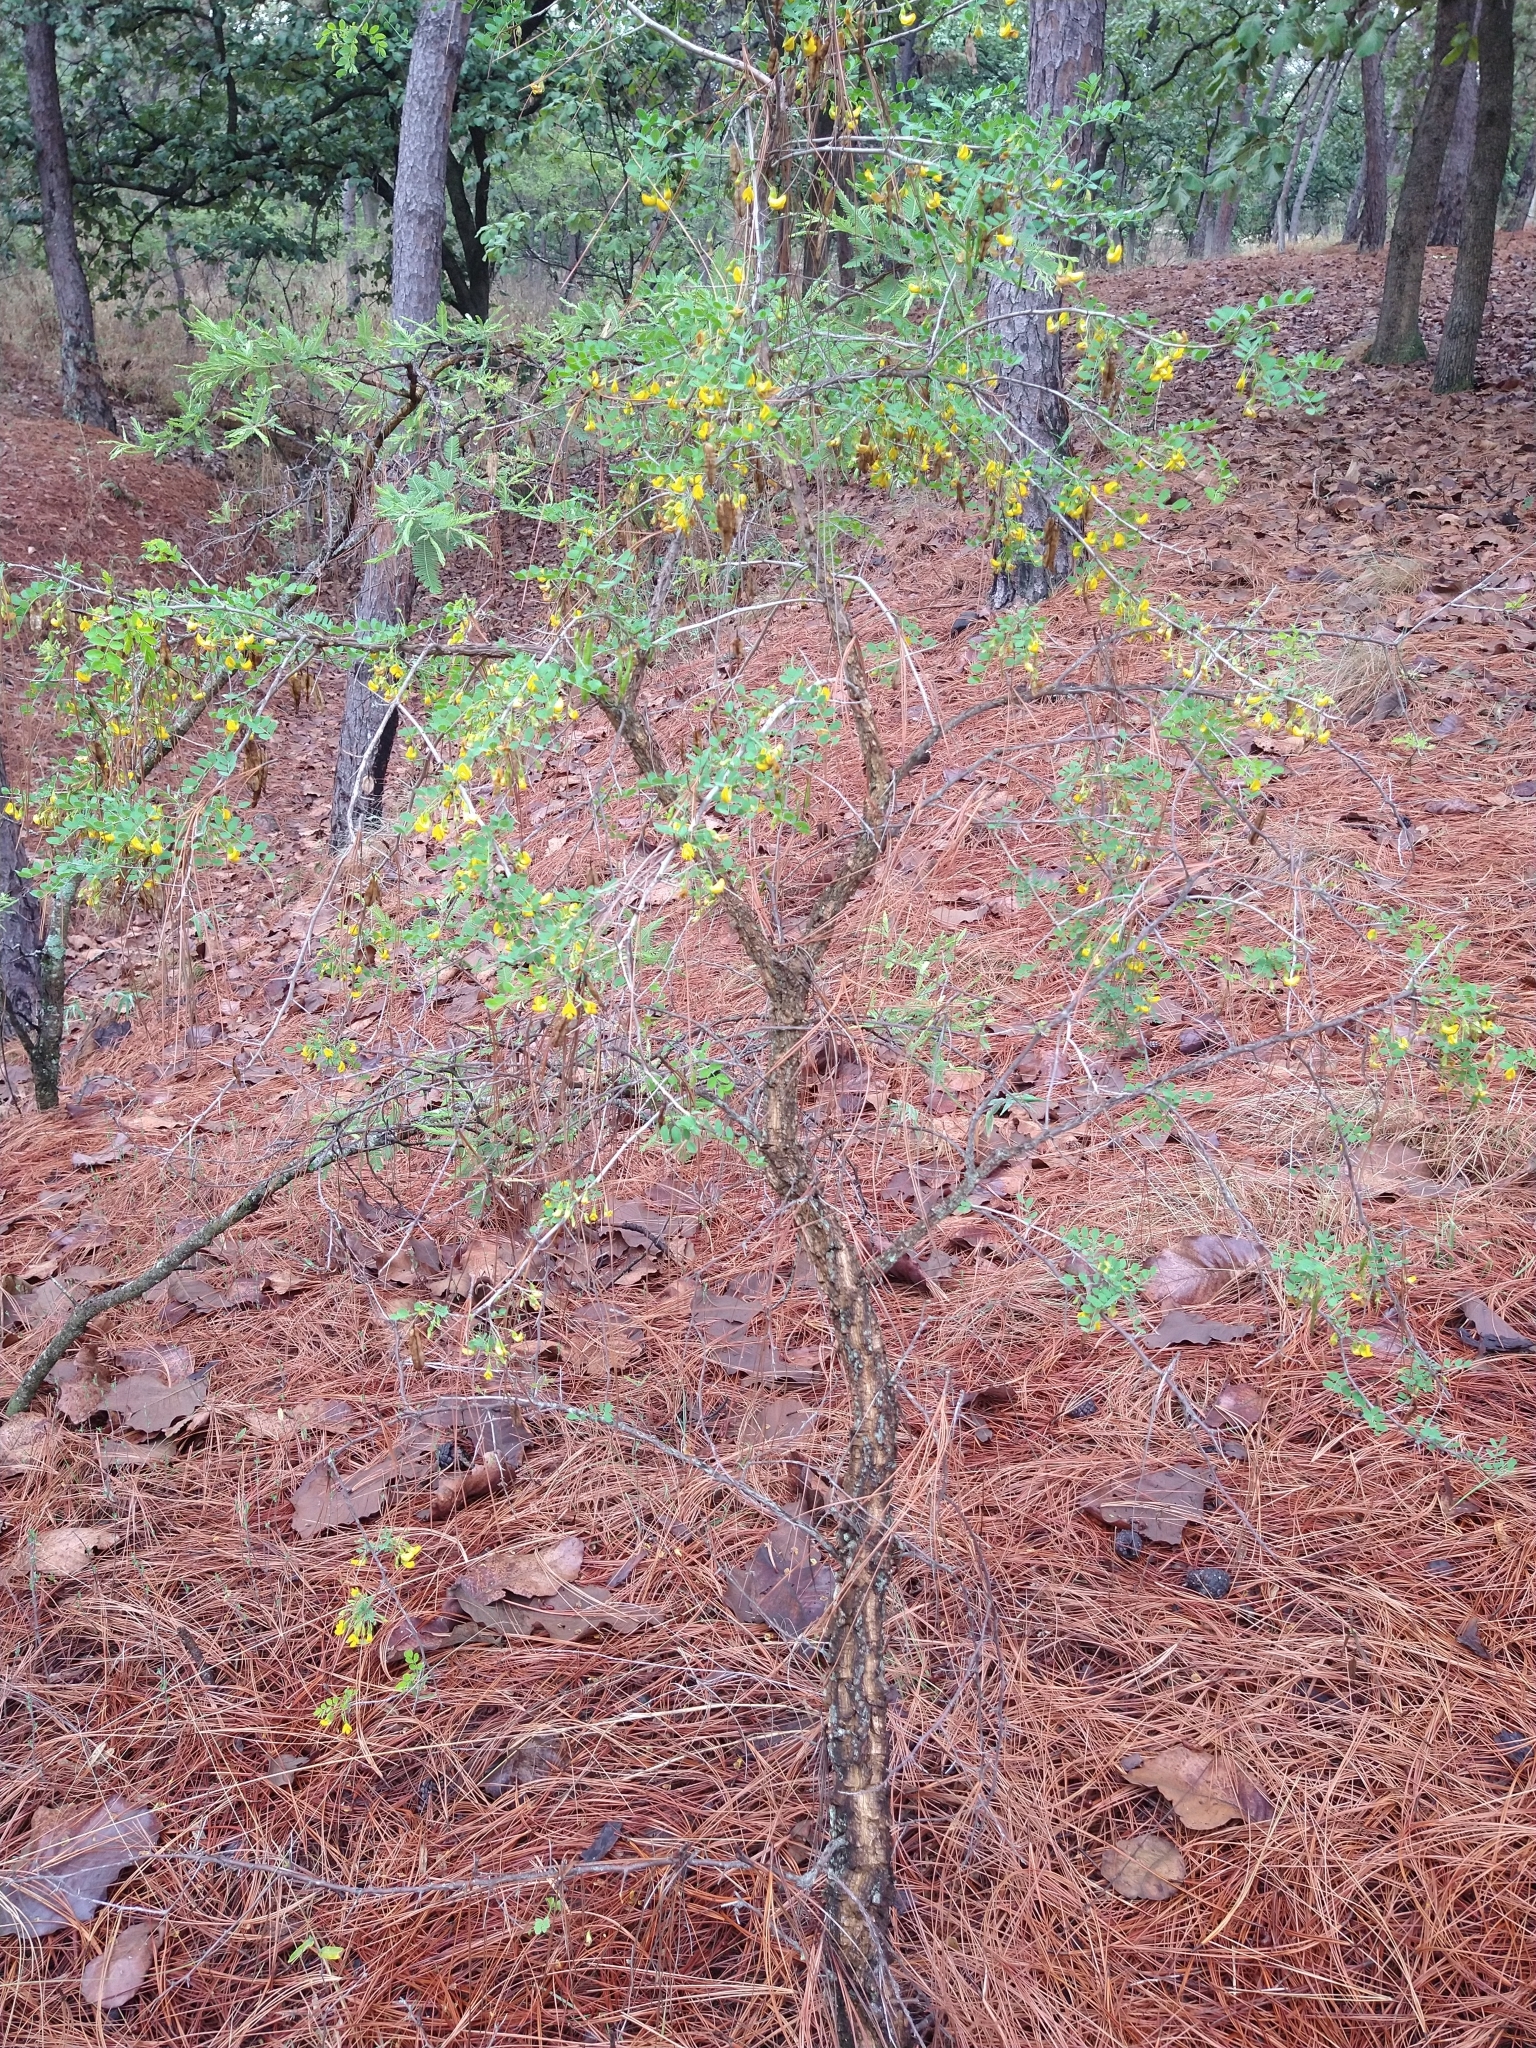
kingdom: Plantae
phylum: Tracheophyta
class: Magnoliopsida
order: Fabales
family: Fabaceae
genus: Diphysa
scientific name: Diphysa suberosa
